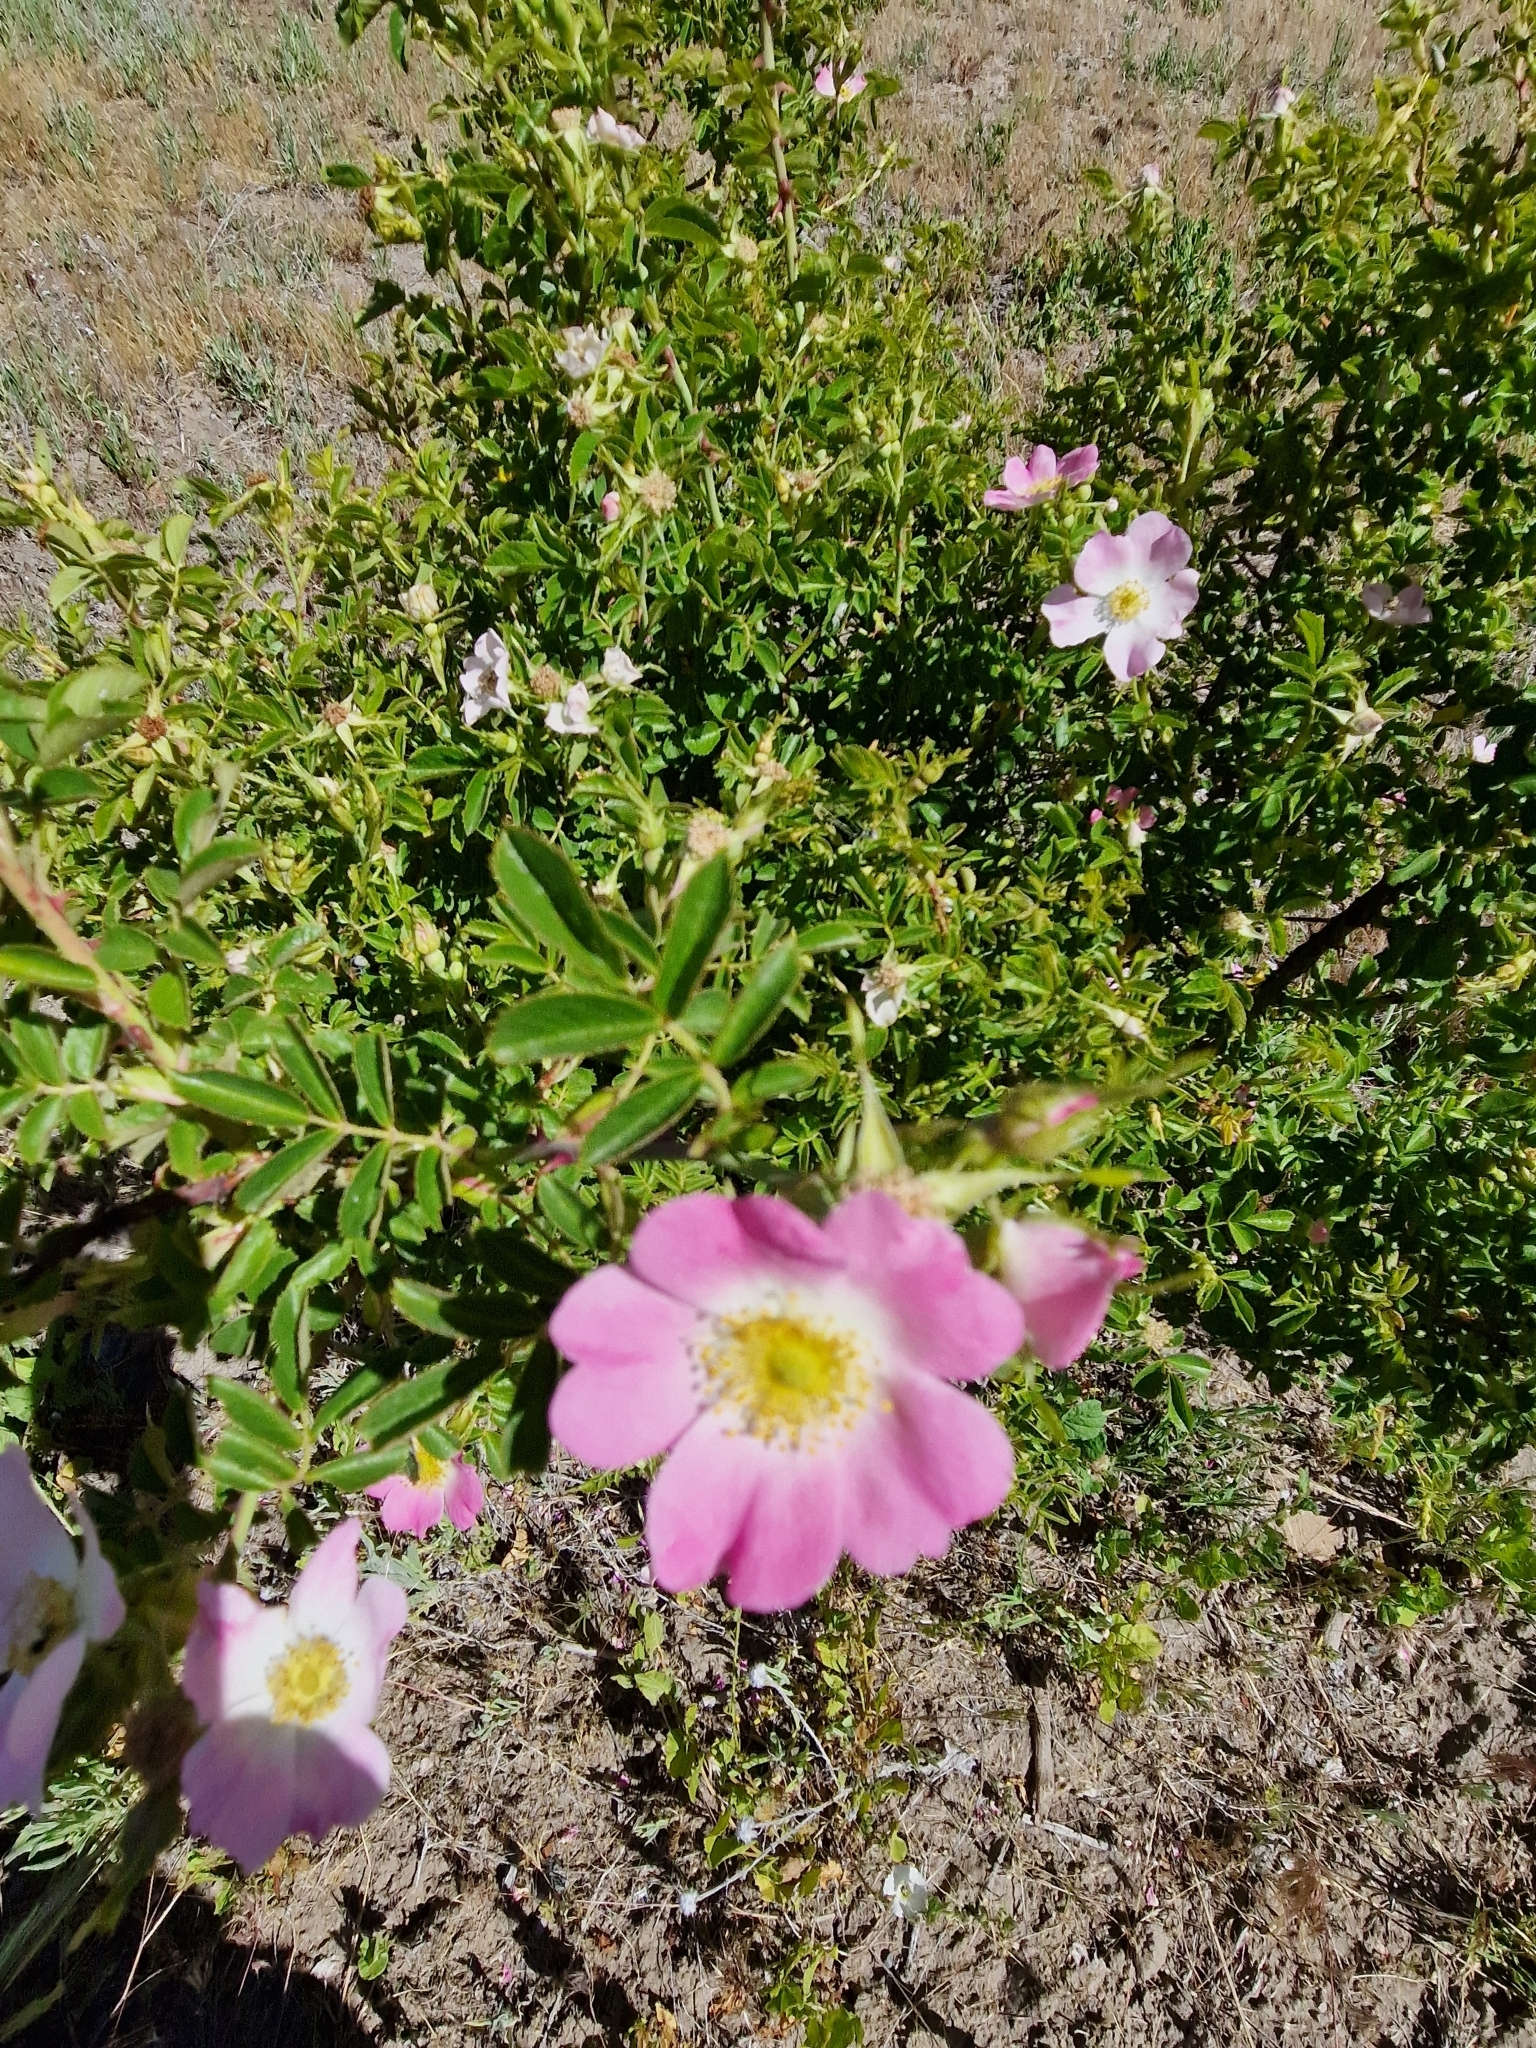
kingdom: Plantae
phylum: Tracheophyta
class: Magnoliopsida
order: Rosales
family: Rosaceae
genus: Rosa
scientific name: Rosa rubiginosa
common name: Sweet-briar
